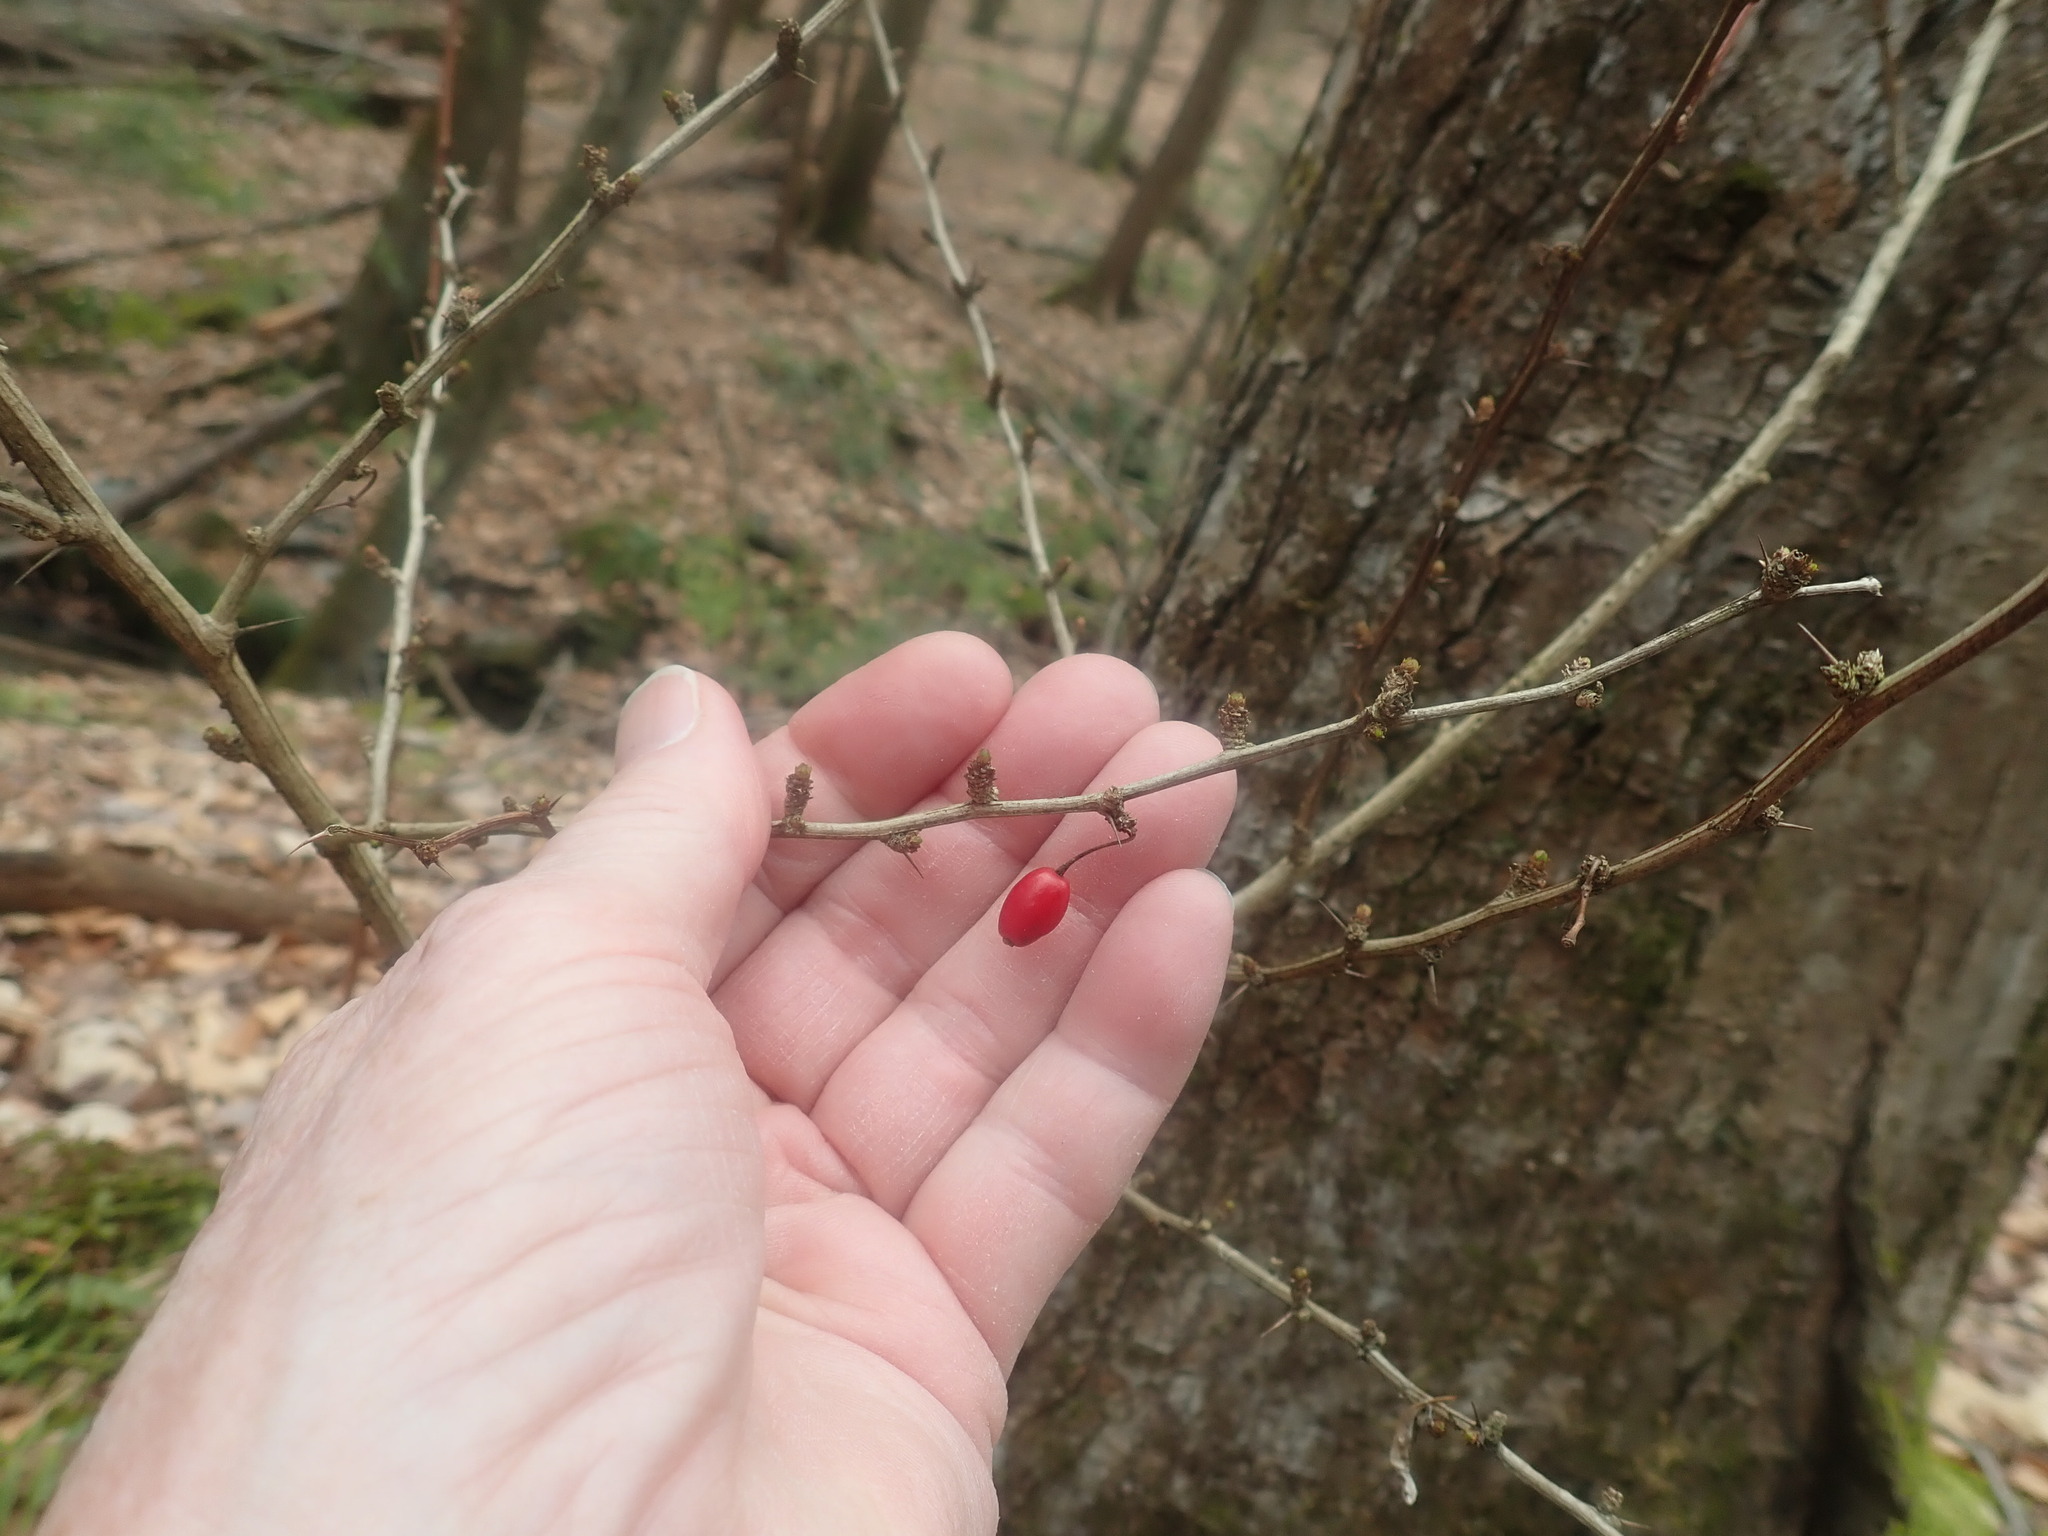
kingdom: Plantae
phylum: Tracheophyta
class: Magnoliopsida
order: Ranunculales
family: Berberidaceae
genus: Berberis
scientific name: Berberis thunbergii
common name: Japanese barberry
